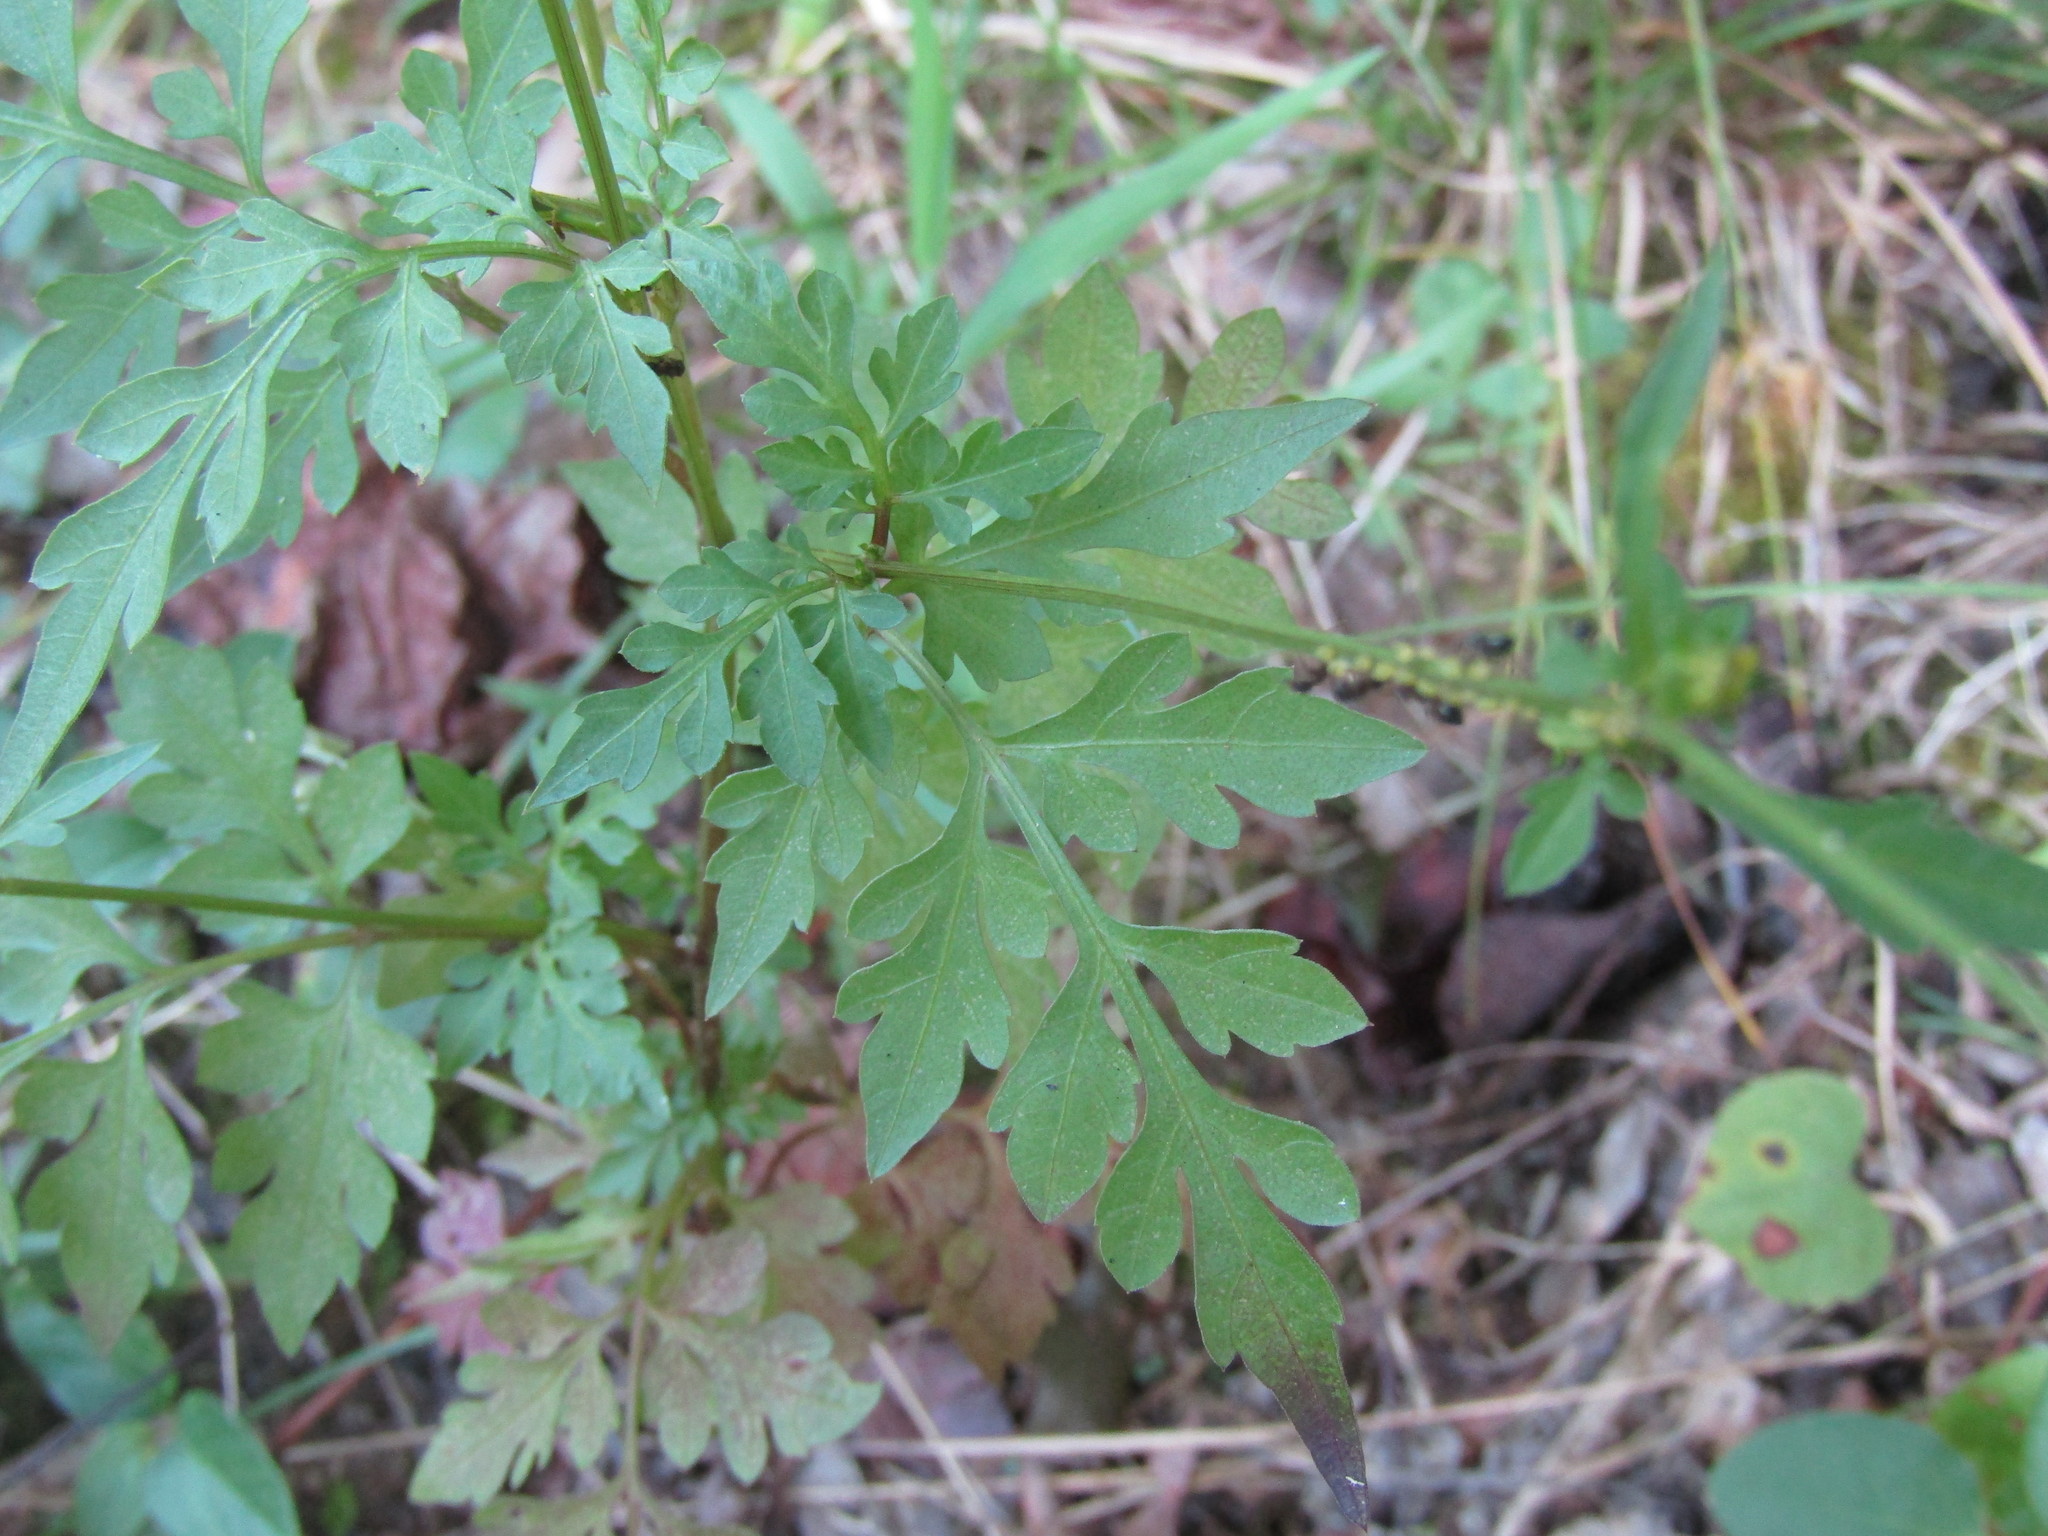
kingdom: Plantae
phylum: Tracheophyta
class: Magnoliopsida
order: Asterales
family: Asteraceae
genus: Bidens
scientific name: Bidens bipinnata
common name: Spanish-needles
